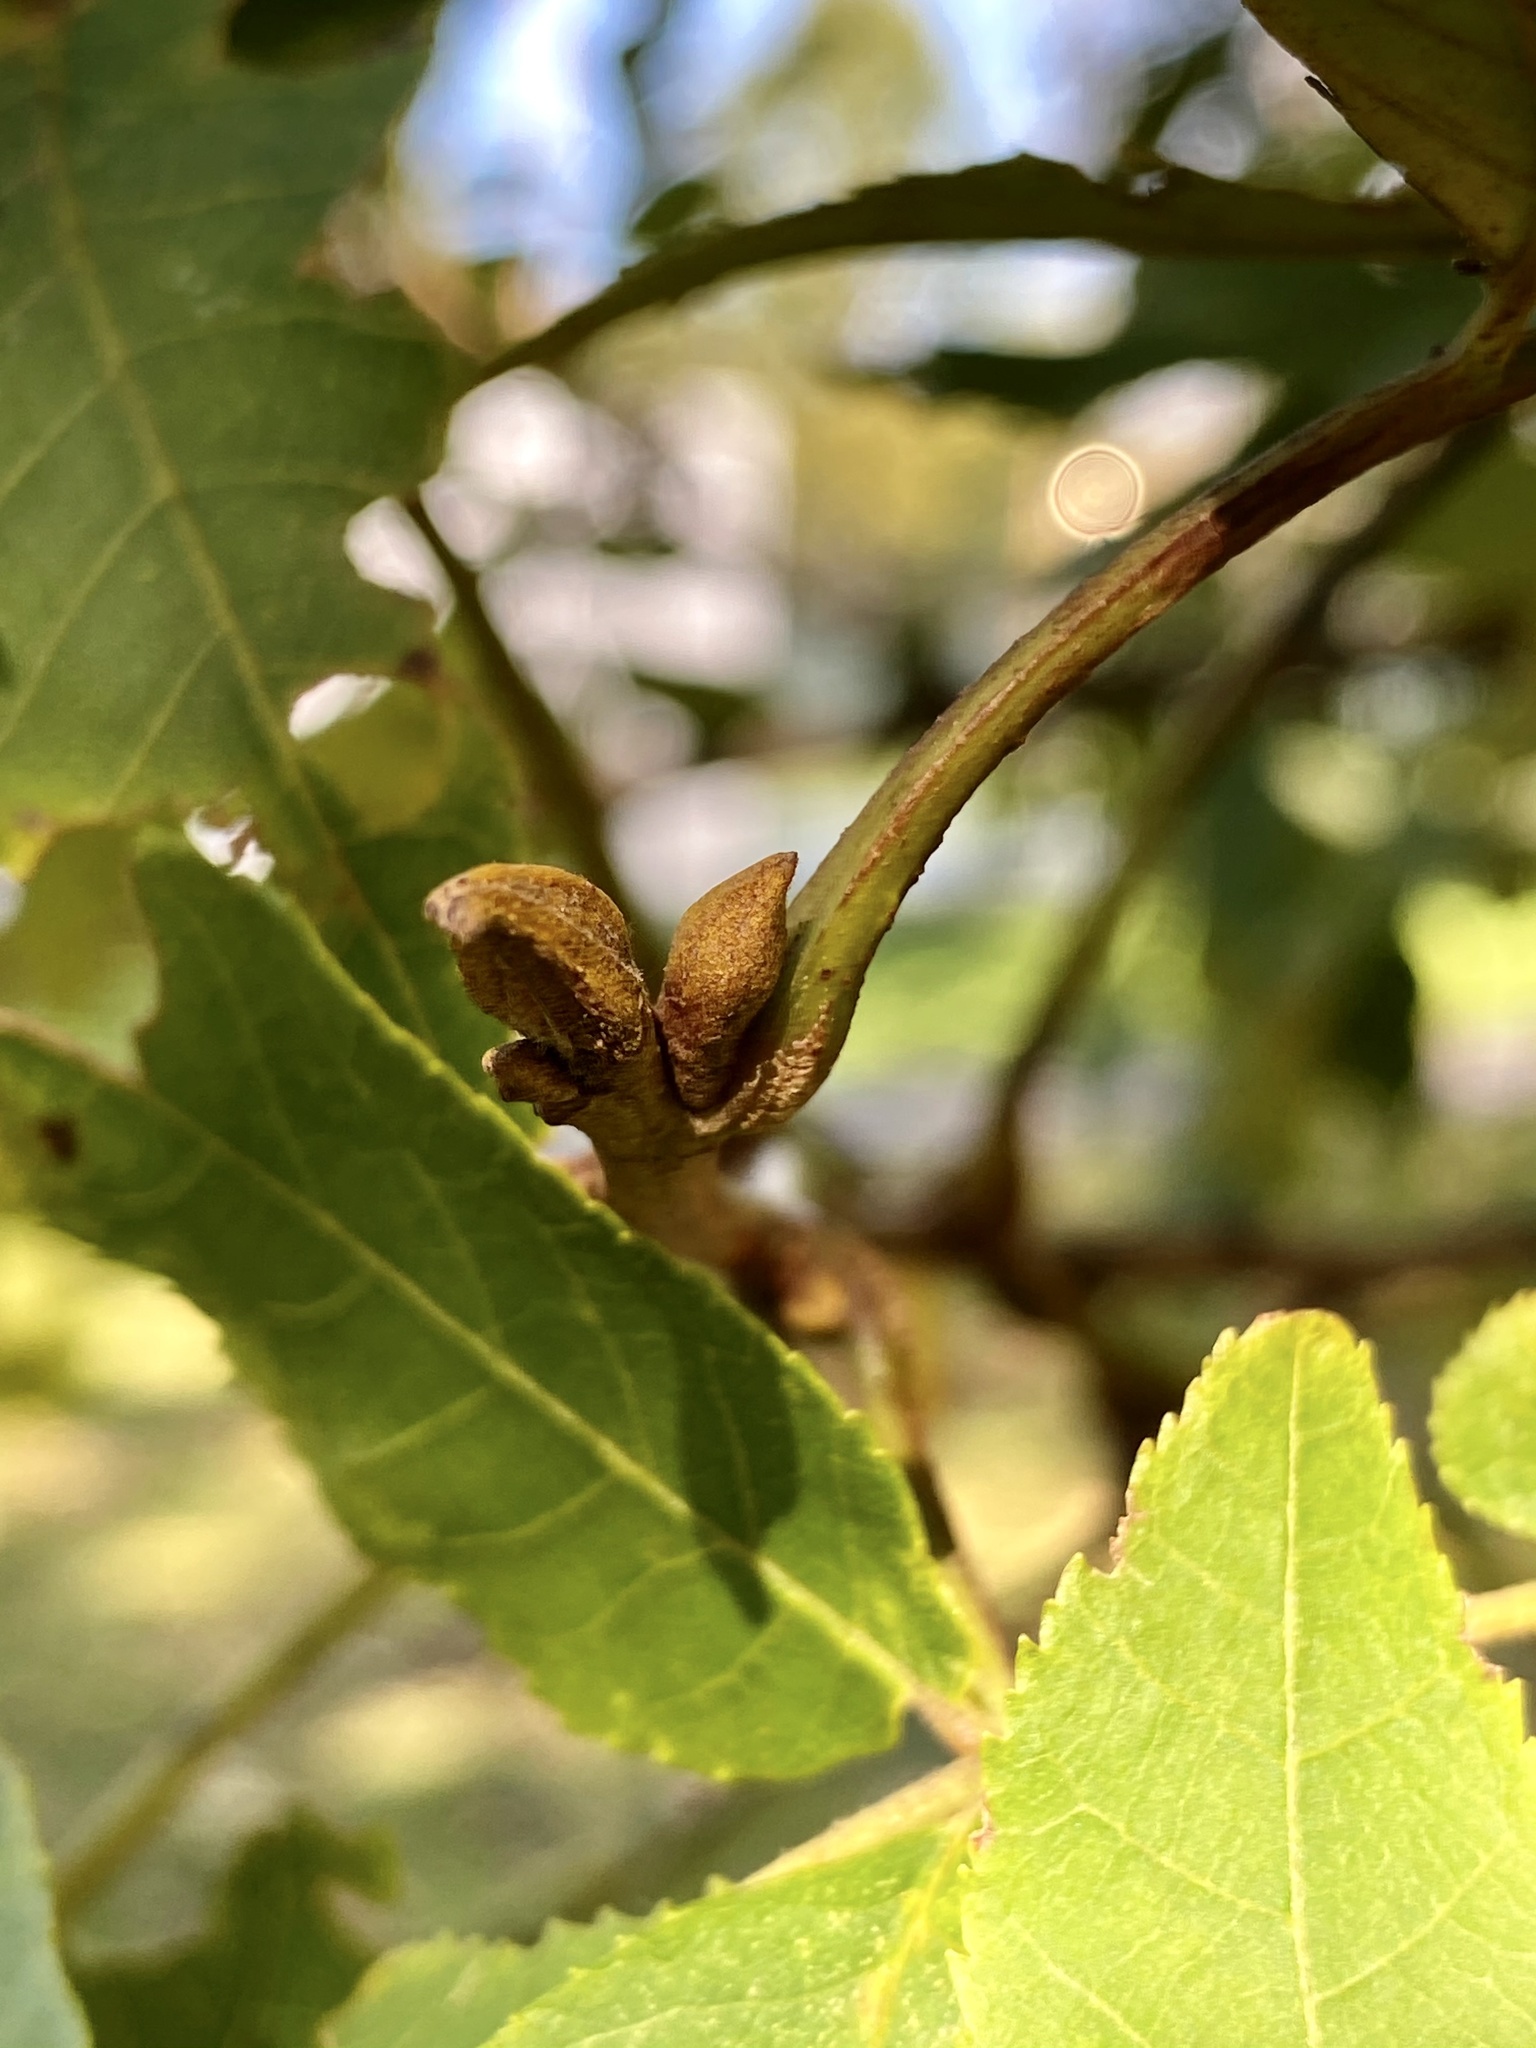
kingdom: Plantae
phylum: Tracheophyta
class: Magnoliopsida
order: Fagales
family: Juglandaceae
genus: Carya
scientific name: Carya cordiformis
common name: Bitternut hickory
